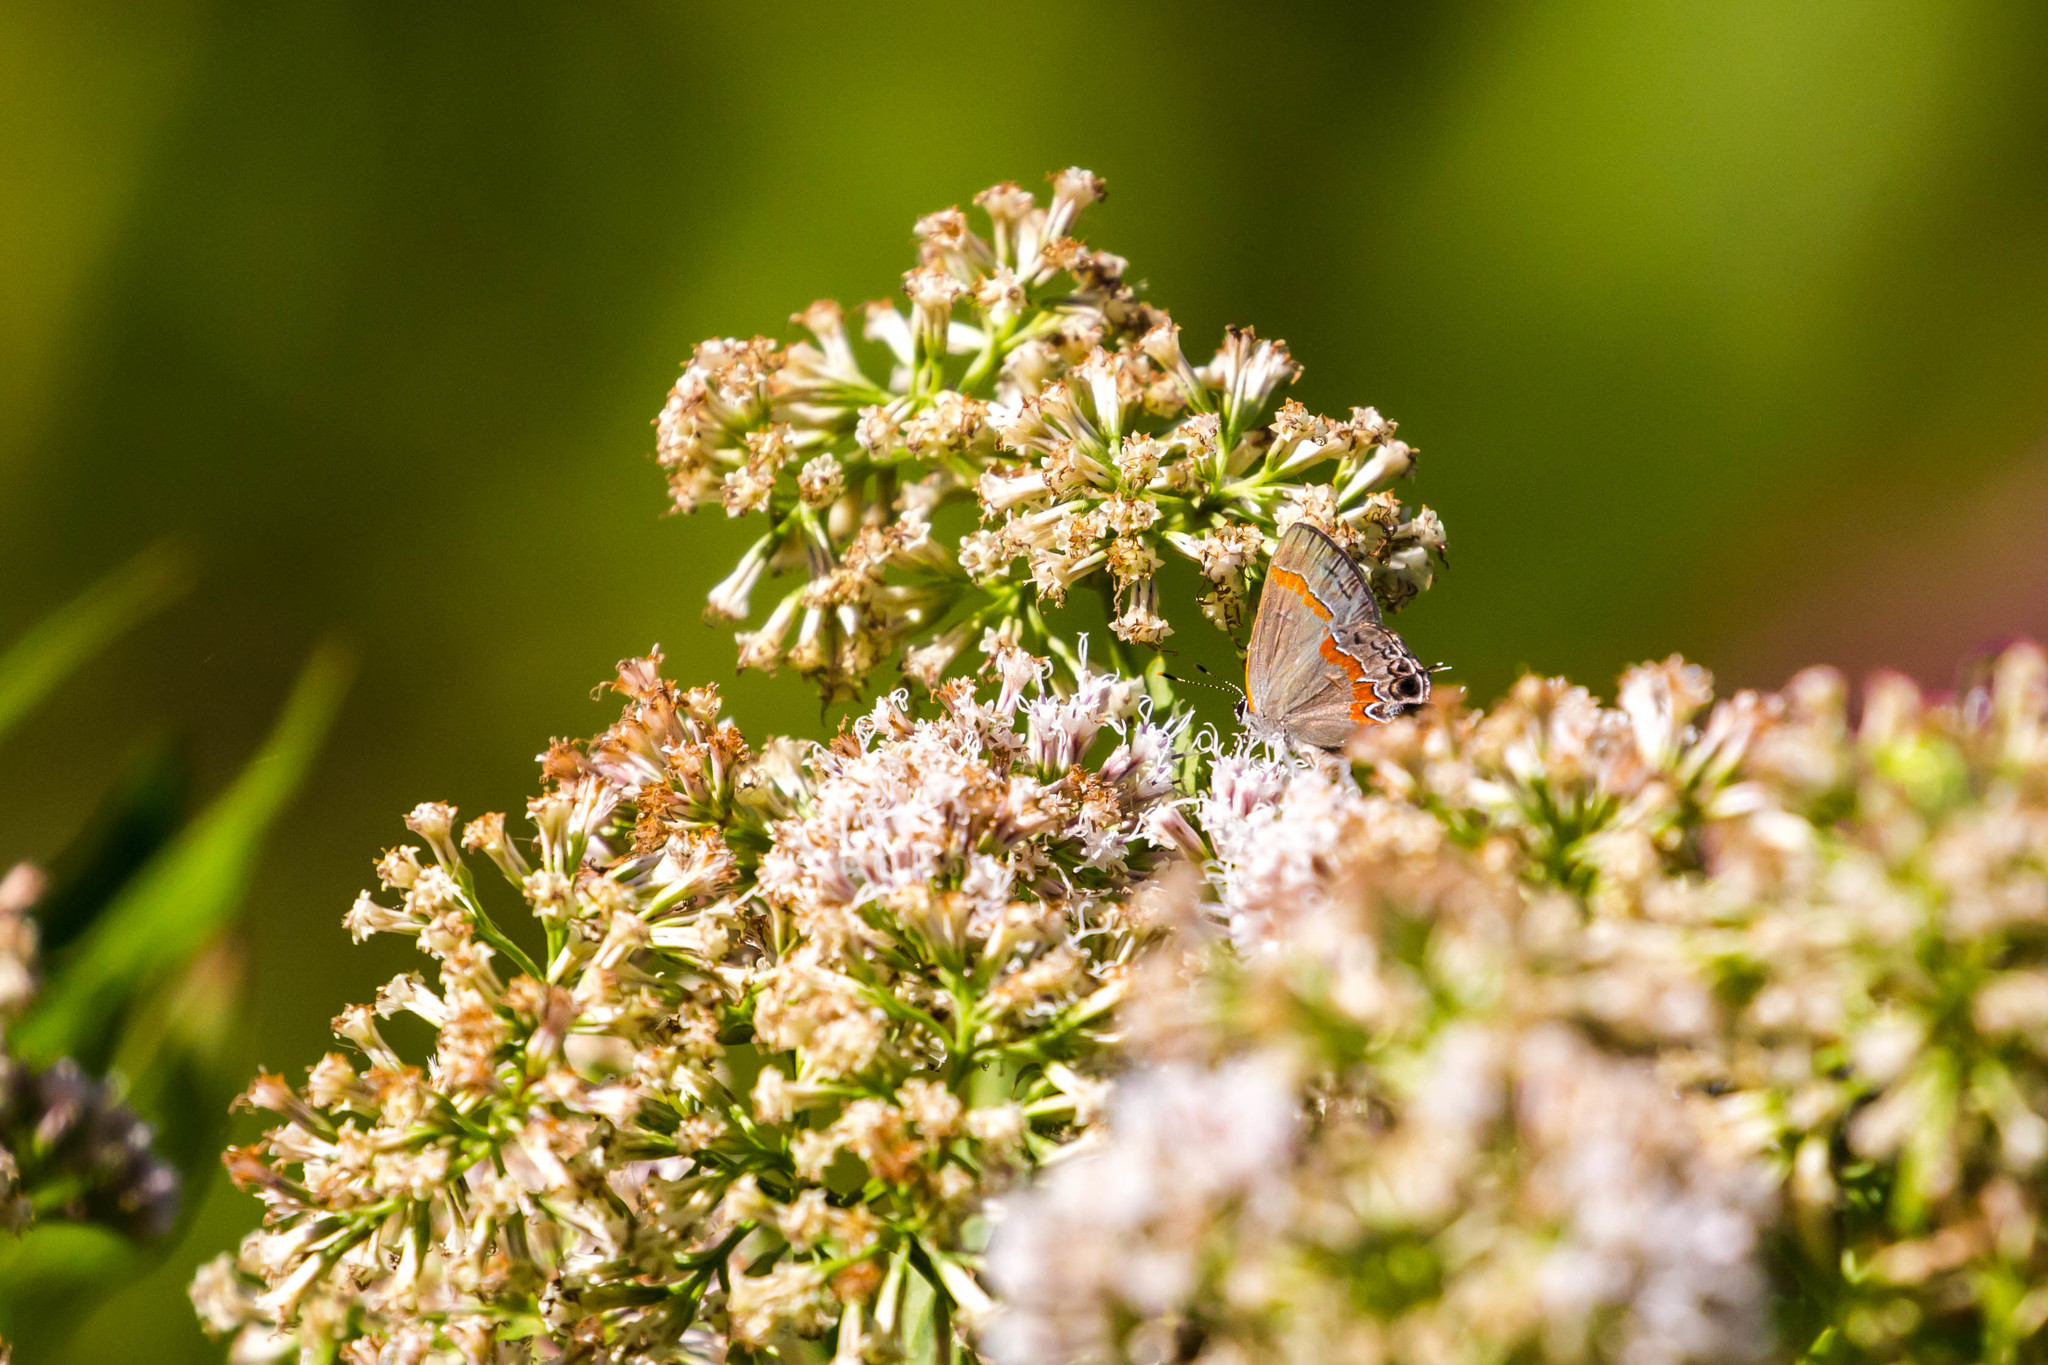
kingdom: Animalia
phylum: Arthropoda
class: Insecta
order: Lepidoptera
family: Lycaenidae
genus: Calycopis
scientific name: Calycopis cecrops
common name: Red-banded hairstreak
